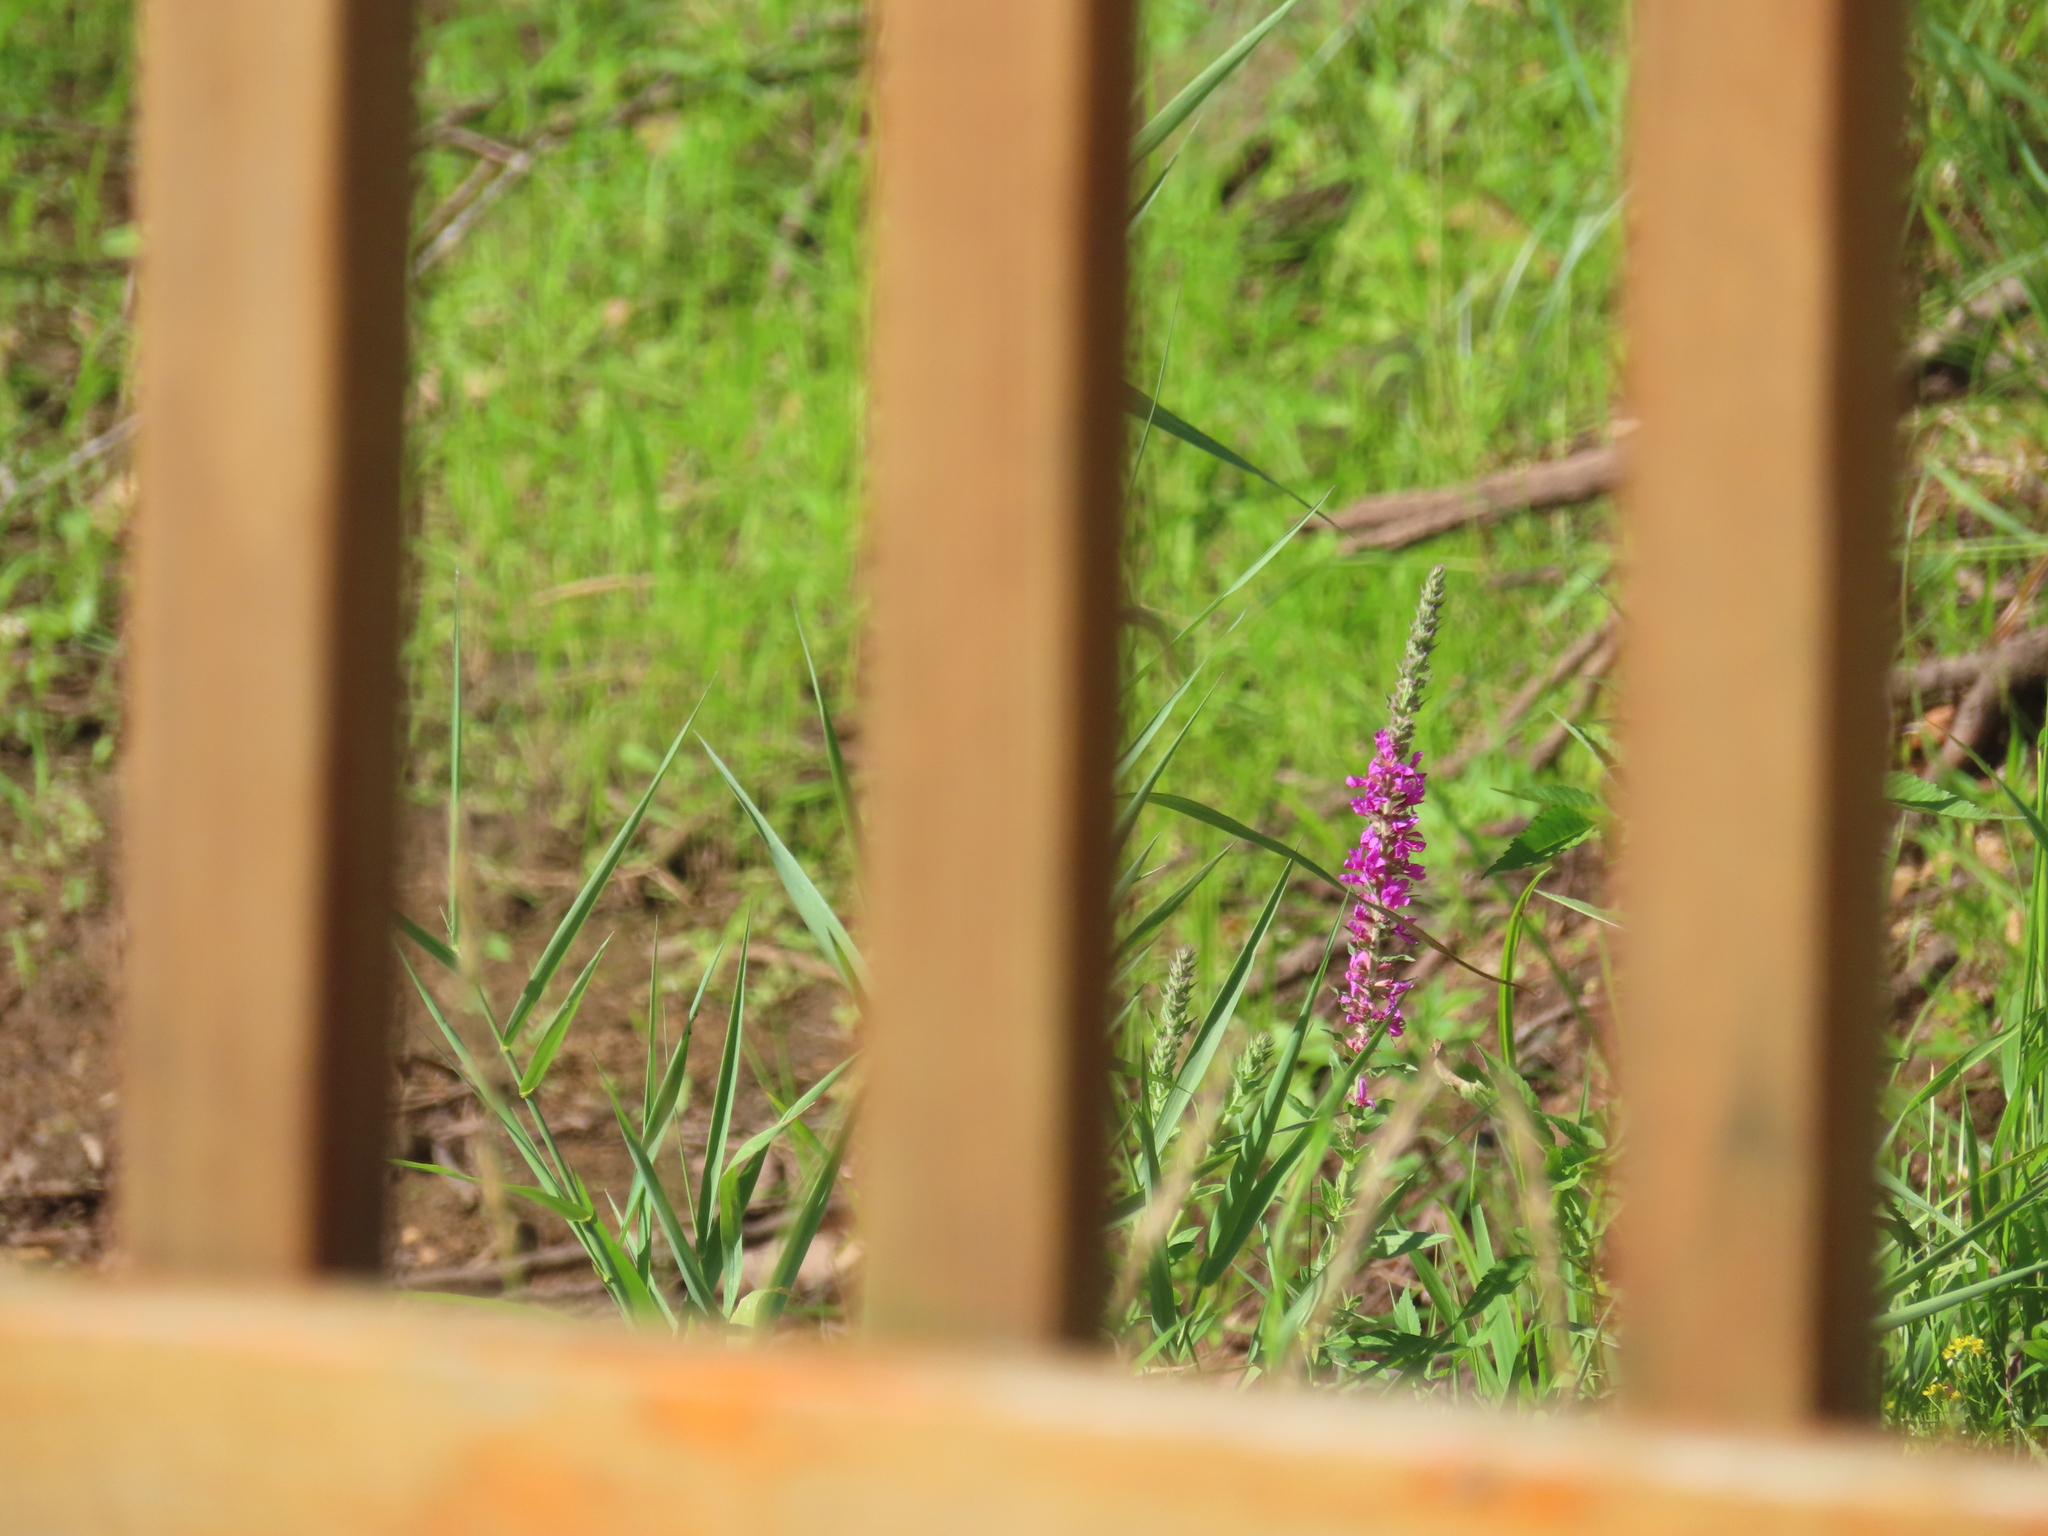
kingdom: Plantae
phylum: Tracheophyta
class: Magnoliopsida
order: Myrtales
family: Lythraceae
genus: Lythrum
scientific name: Lythrum salicaria
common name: Purple loosestrife
